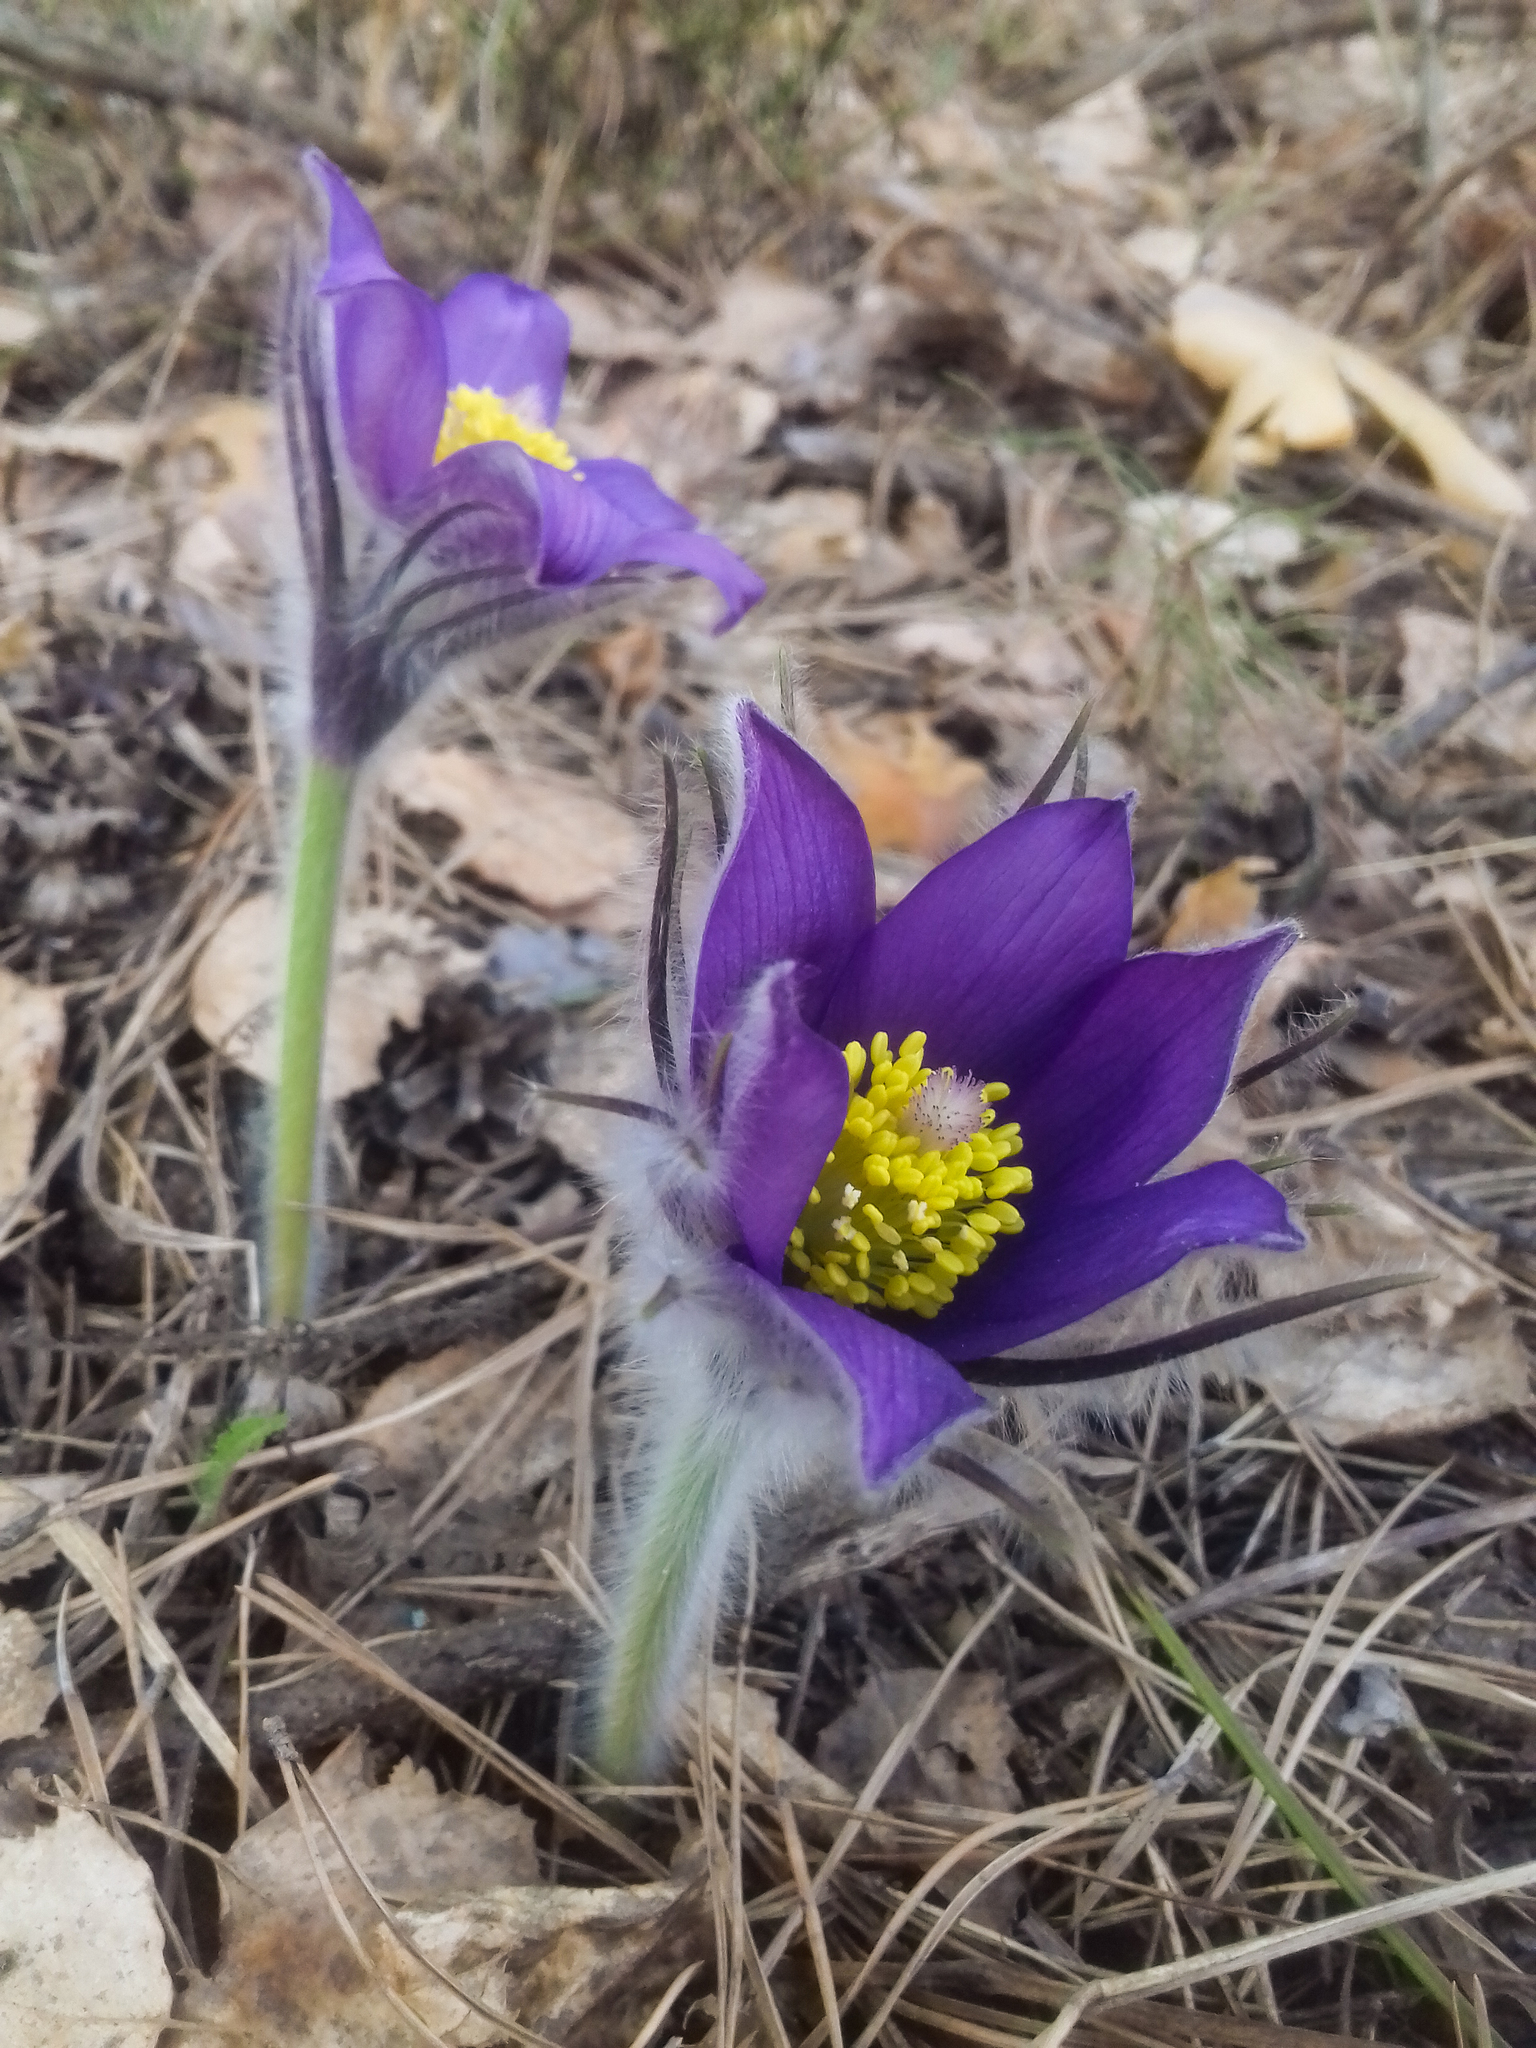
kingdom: Plantae
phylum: Tracheophyta
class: Magnoliopsida
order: Ranunculales
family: Ranunculaceae
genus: Pulsatilla
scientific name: Pulsatilla patens
